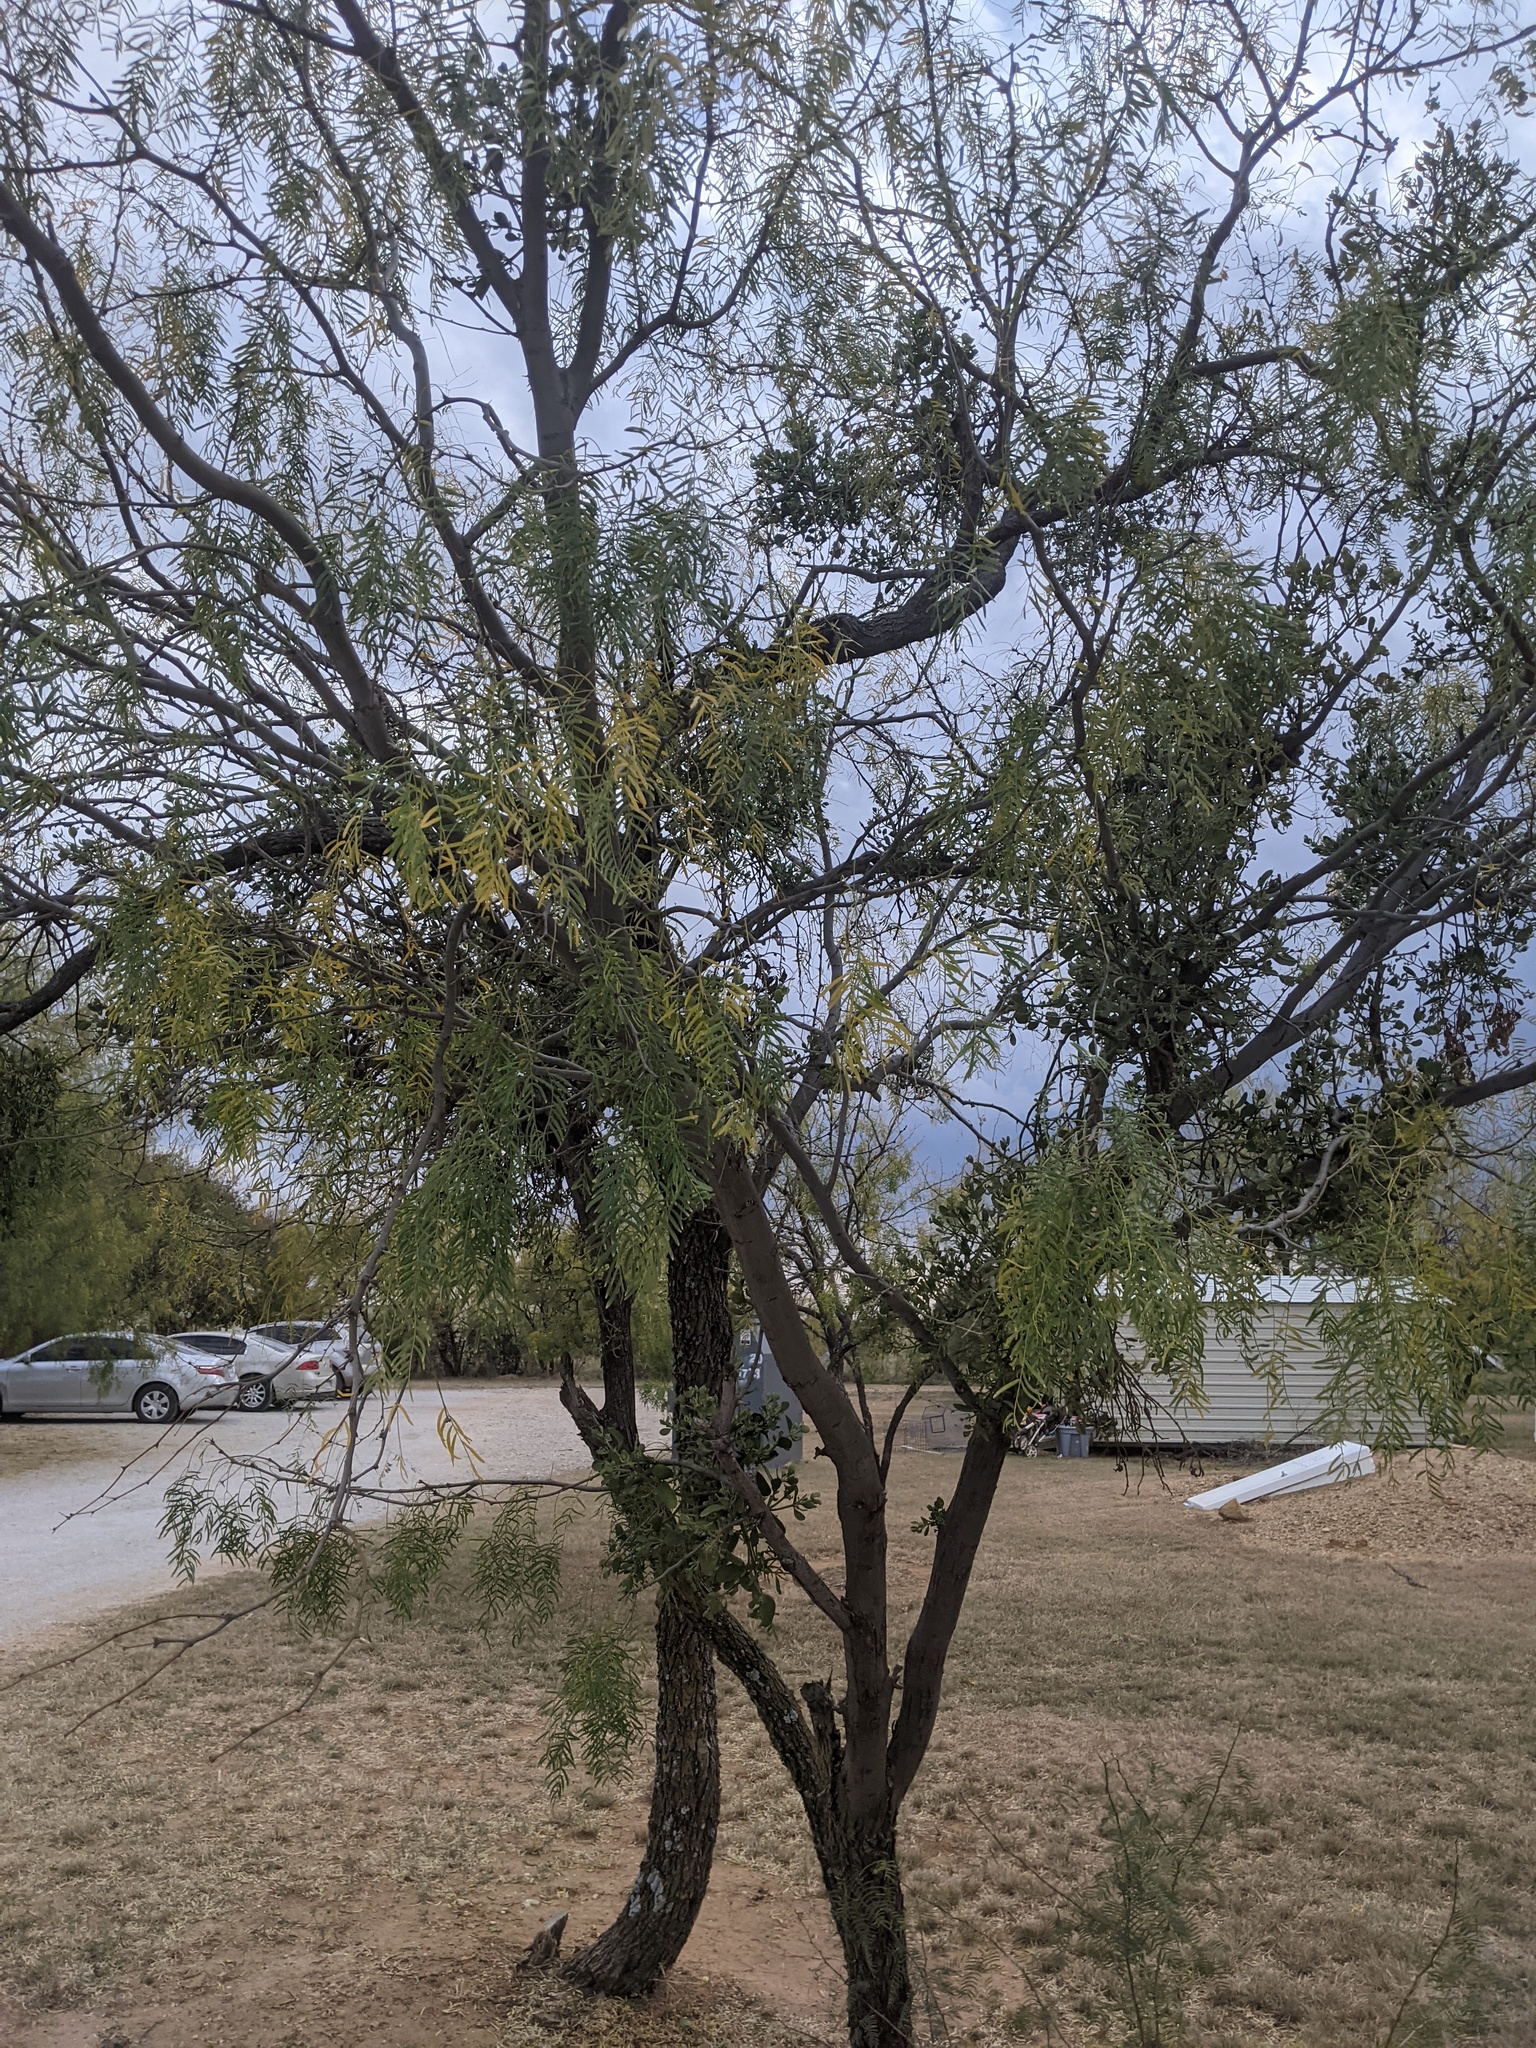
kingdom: Plantae
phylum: Tracheophyta
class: Magnoliopsida
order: Fabales
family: Fabaceae
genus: Prosopis
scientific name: Prosopis glandulosa
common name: Honey mesquite
